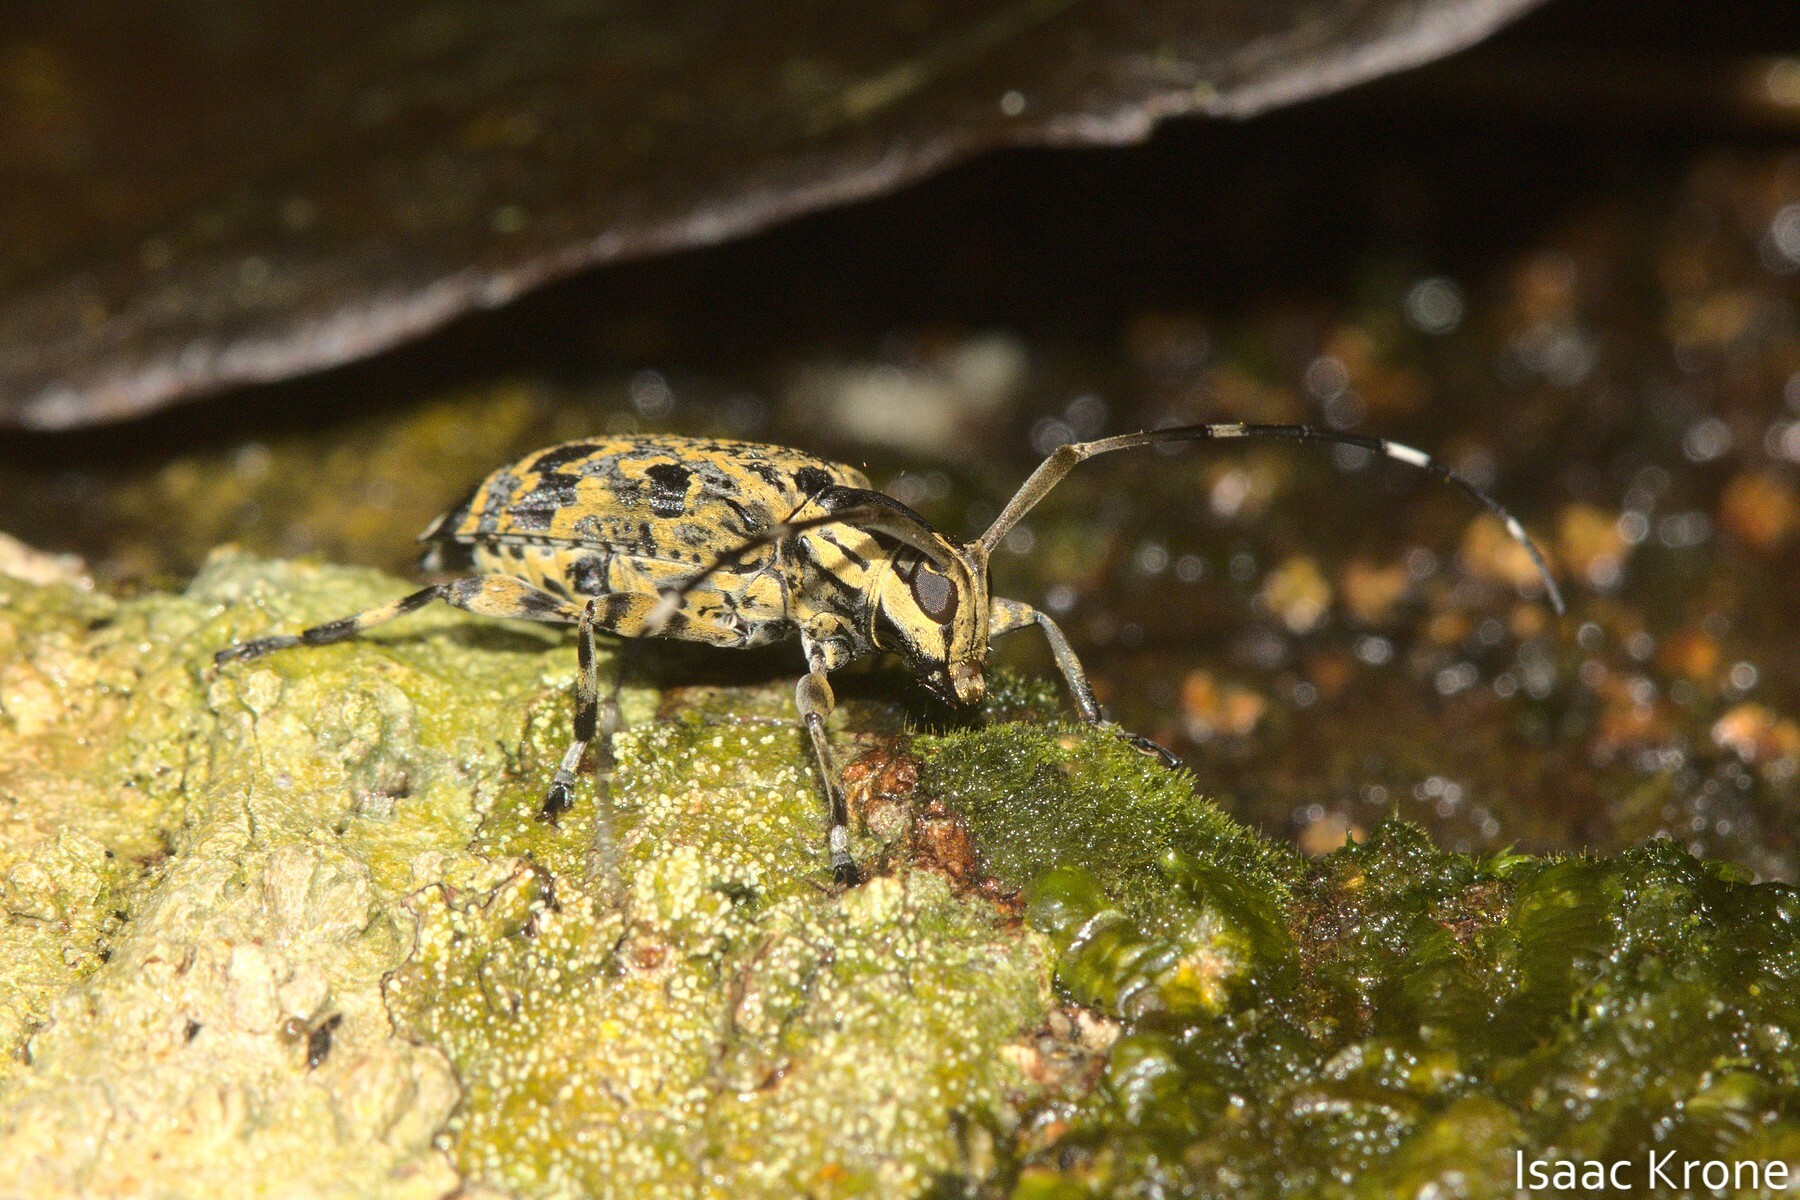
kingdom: Animalia
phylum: Arthropoda
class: Insecta
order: Coleoptera
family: Cerambycidae
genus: Colobothea
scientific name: Colobothea macularis
